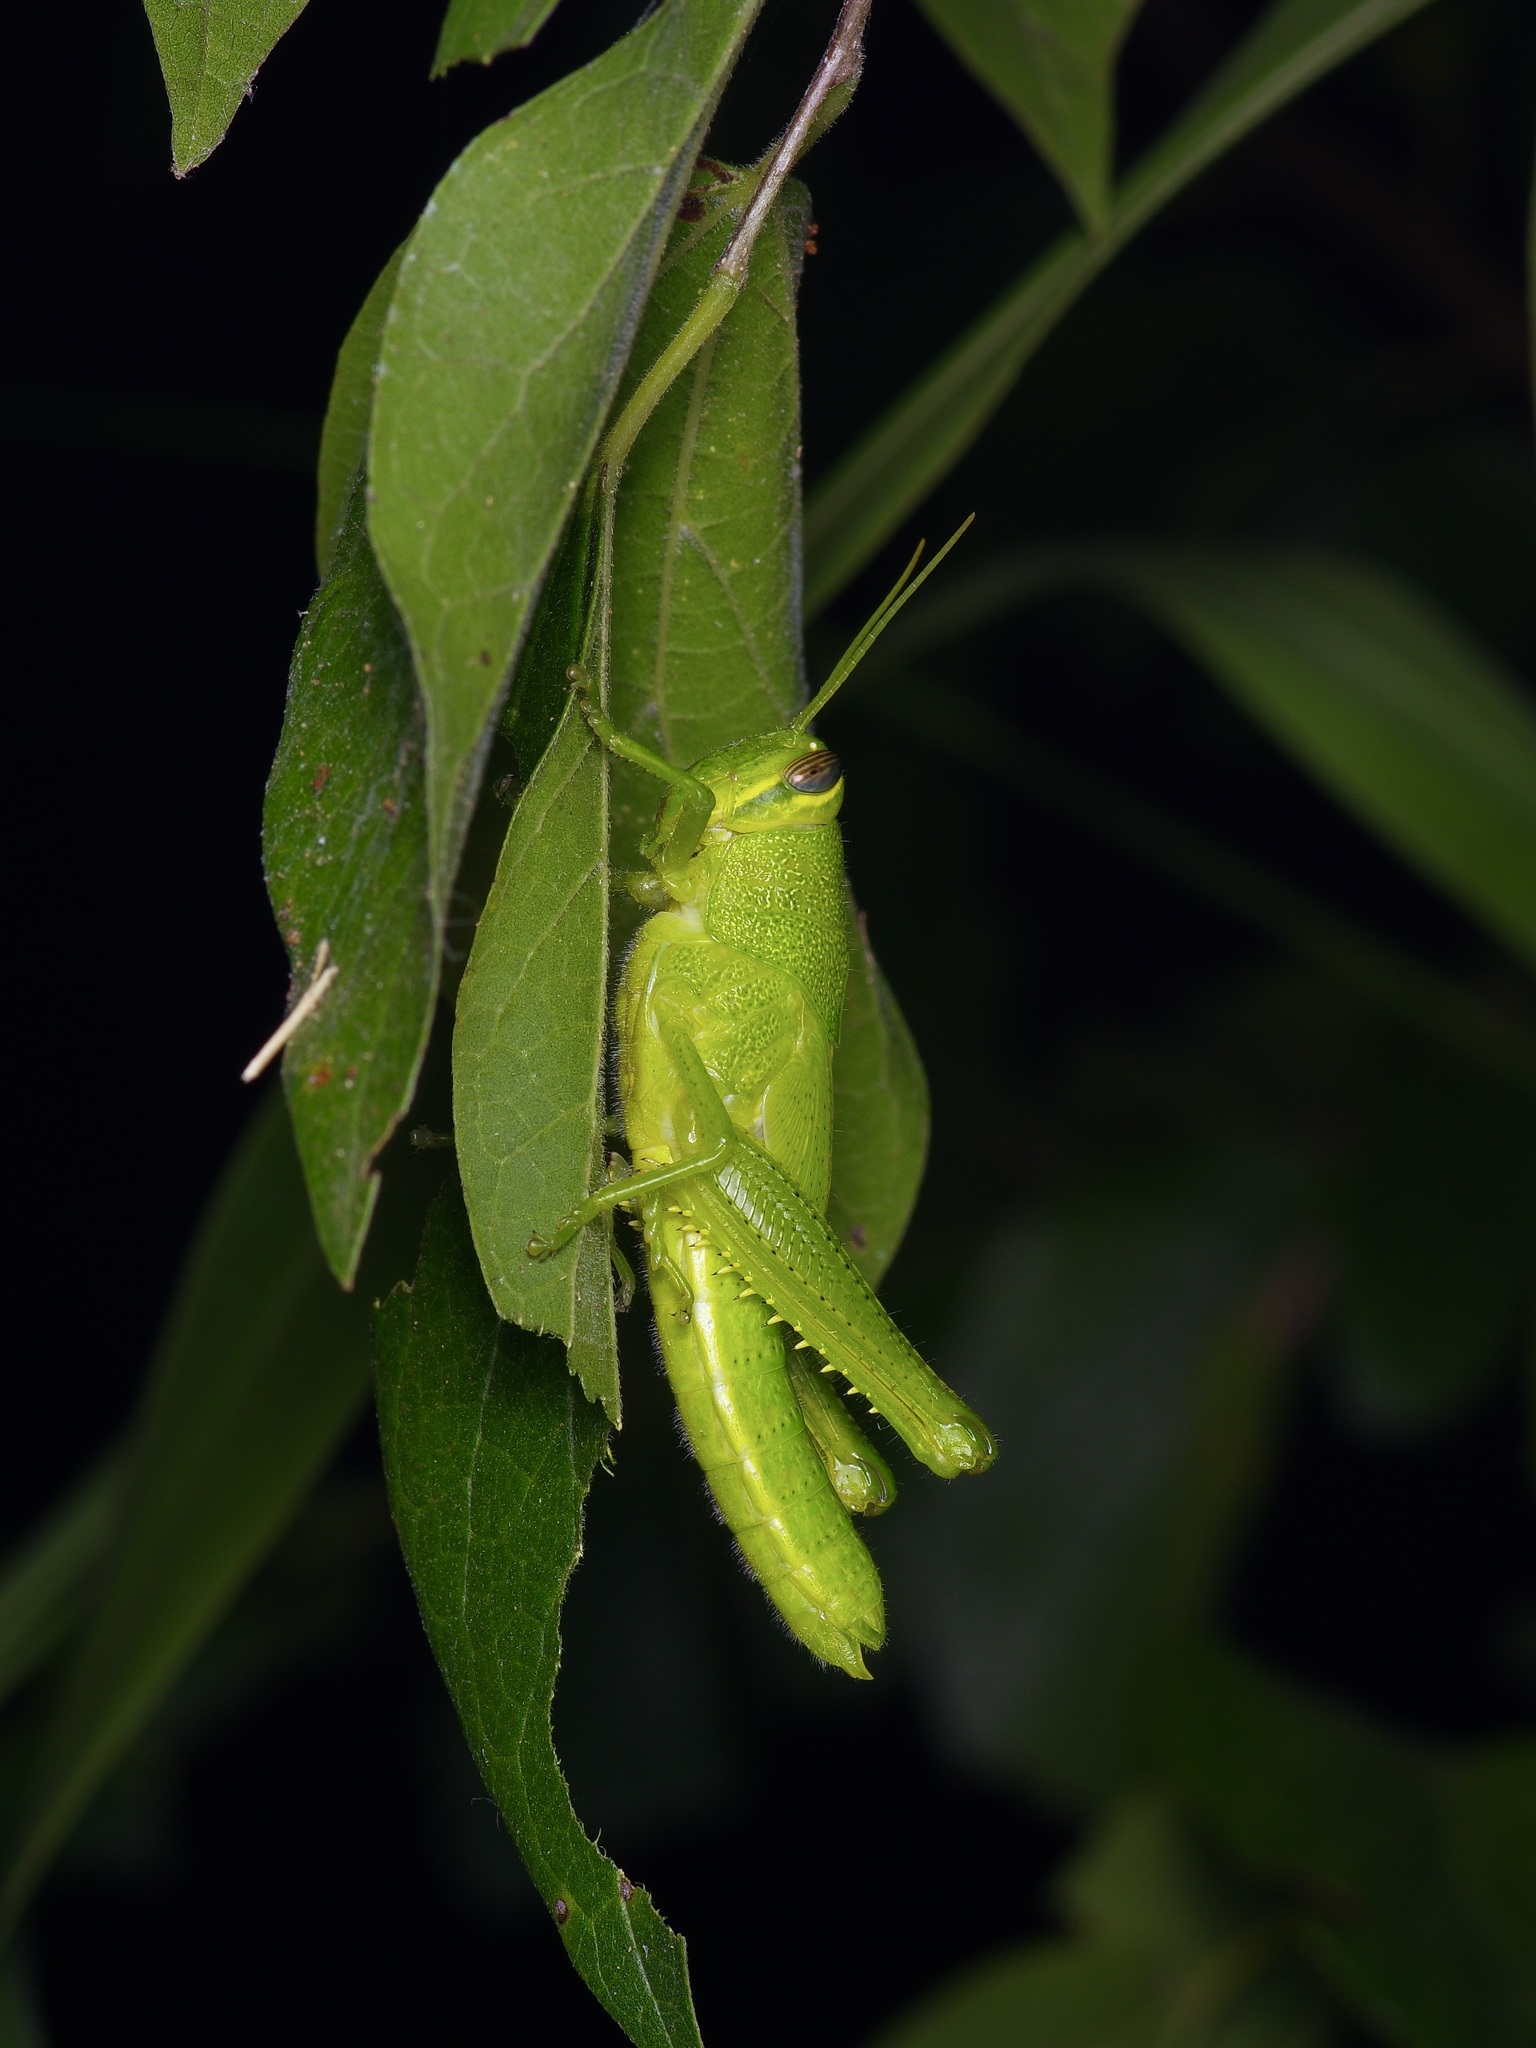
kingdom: Animalia
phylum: Arthropoda
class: Insecta
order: Orthoptera
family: Acrididae
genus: Schistocerca
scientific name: Schistocerca obscura
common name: Obscure bird grasshopper
